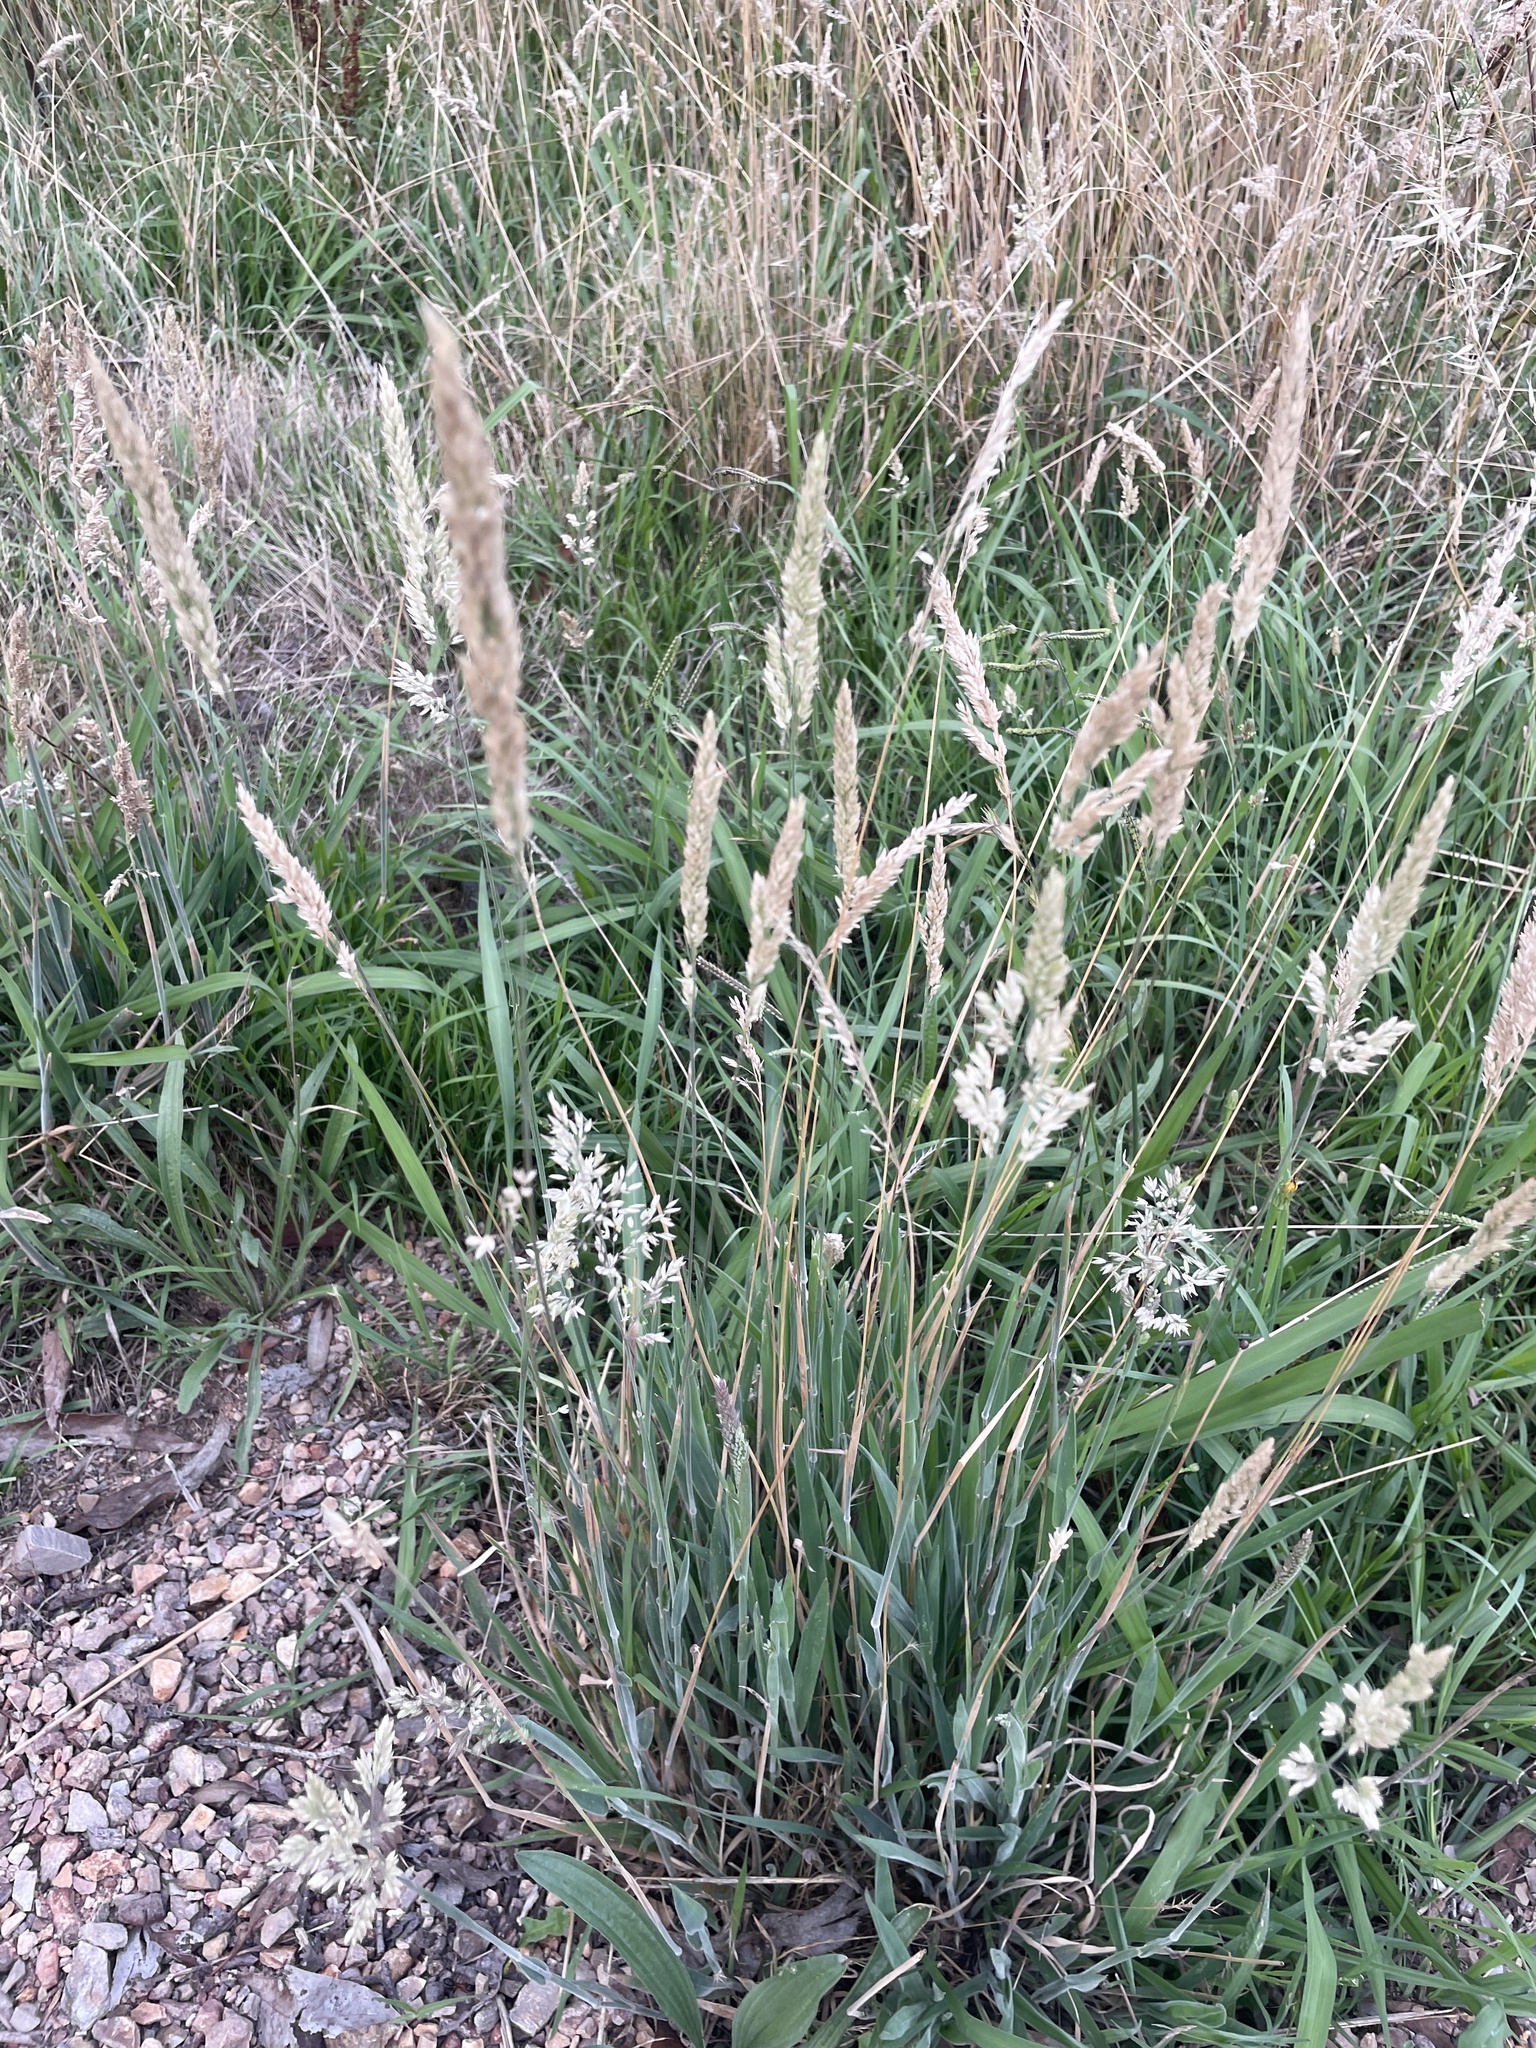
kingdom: Plantae
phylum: Tracheophyta
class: Liliopsida
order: Poales
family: Poaceae
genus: Holcus
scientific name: Holcus lanatus
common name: Yorkshire-fog
